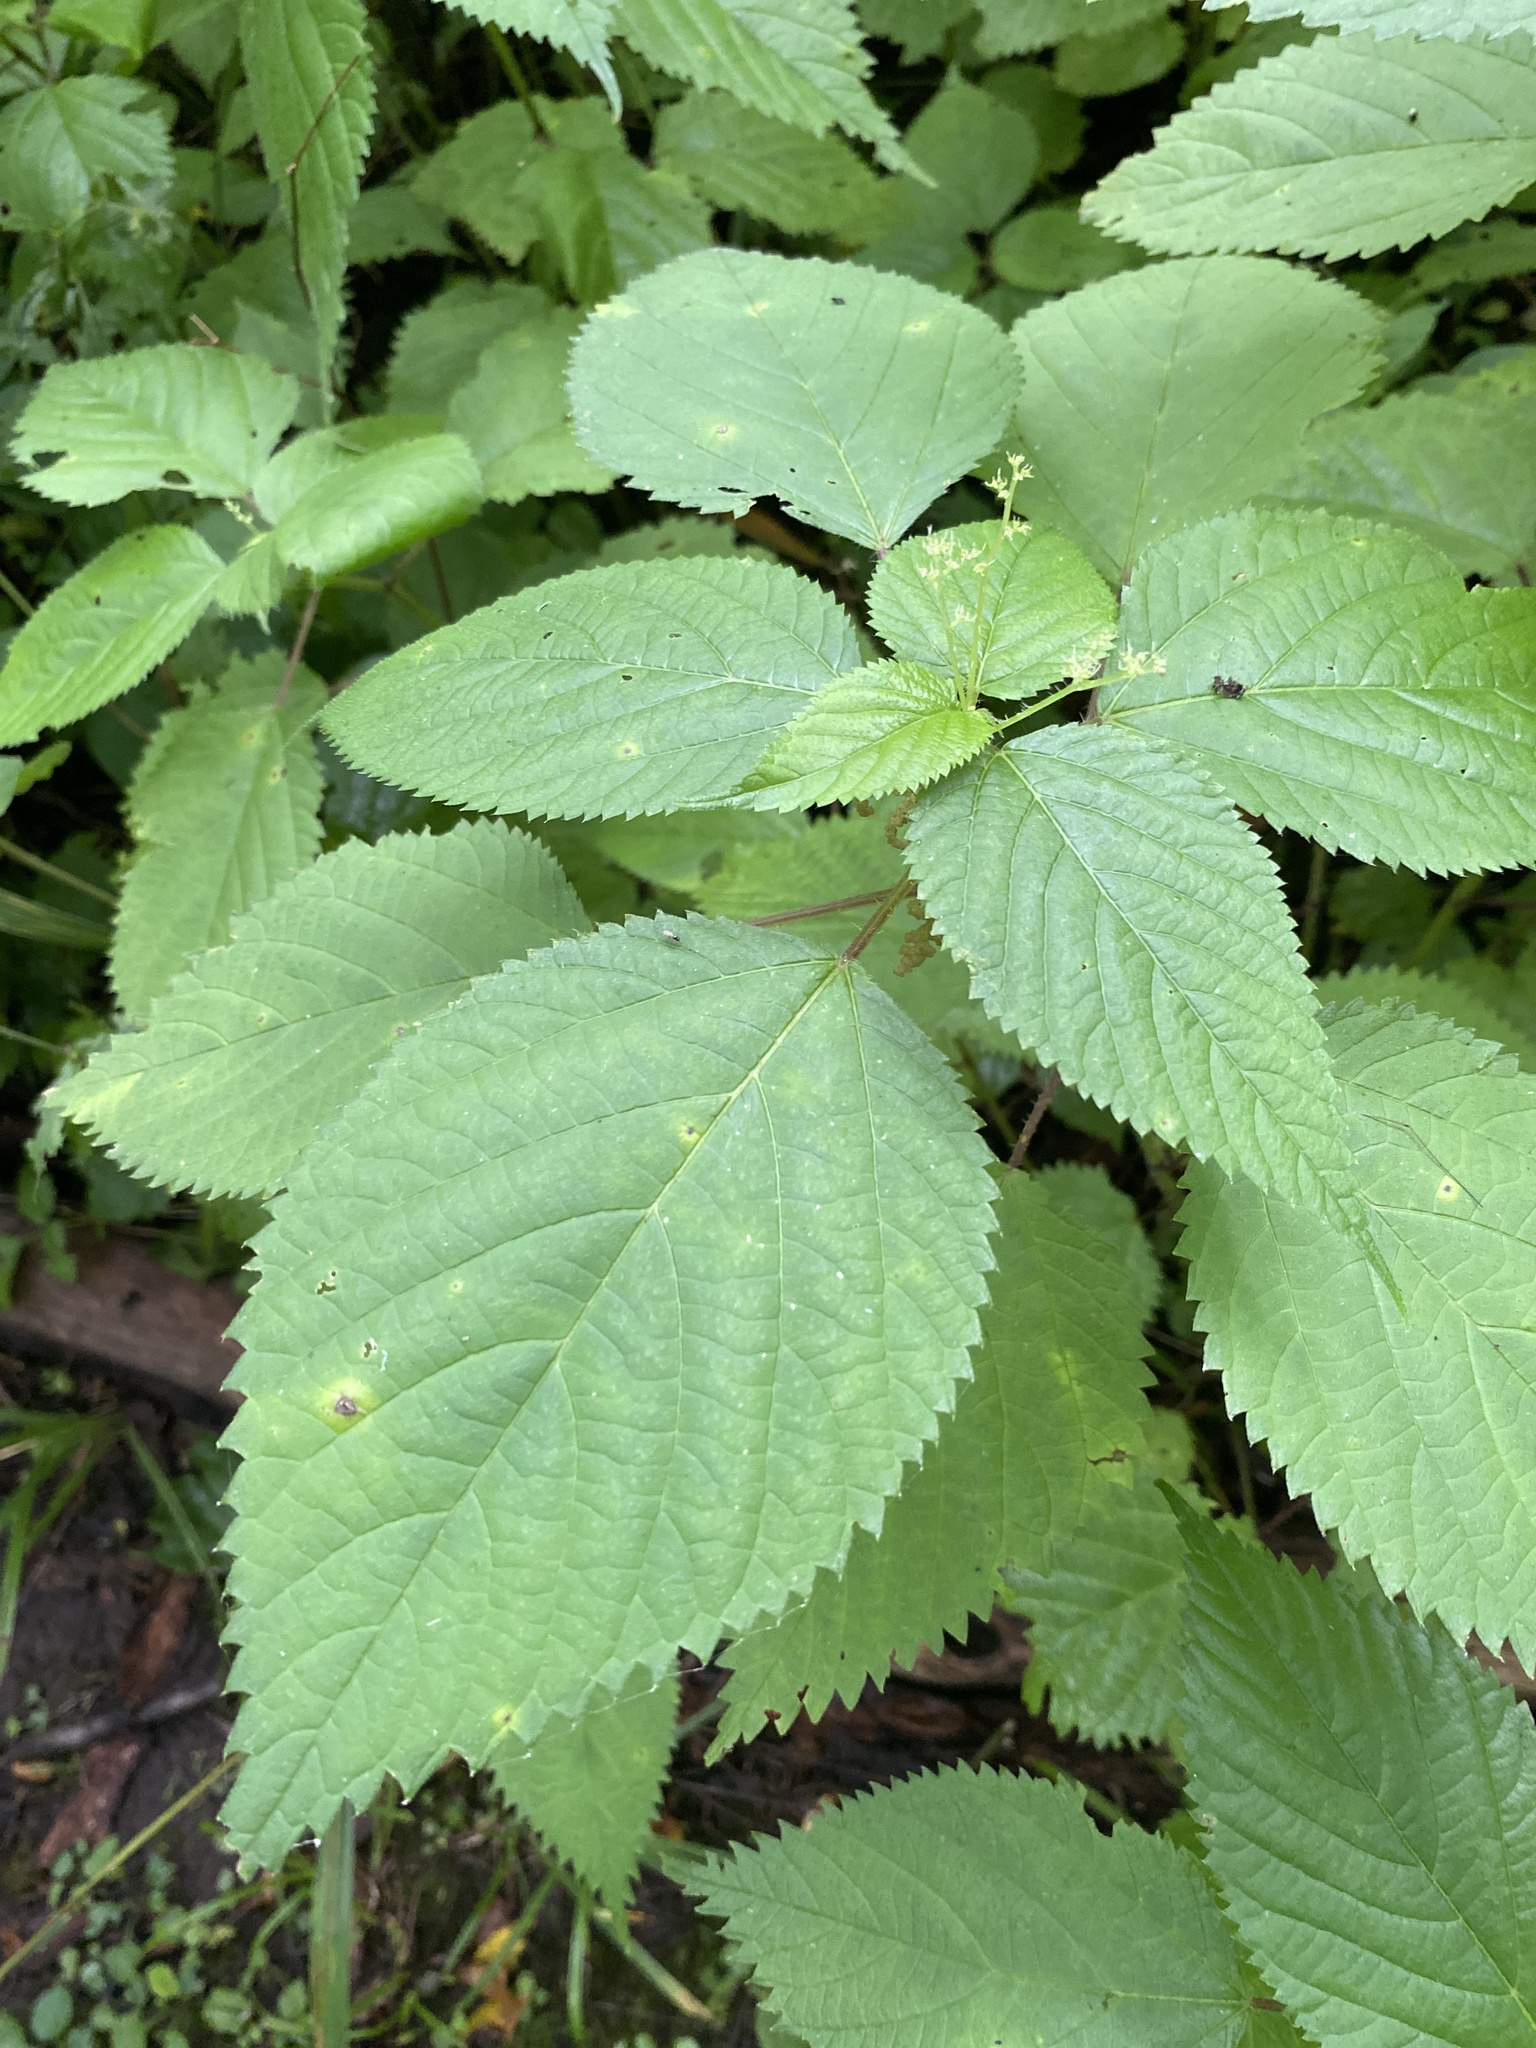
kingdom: Plantae
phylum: Tracheophyta
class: Magnoliopsida
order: Rosales
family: Urticaceae
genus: Laportea
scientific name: Laportea canadensis
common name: Canada nettle
